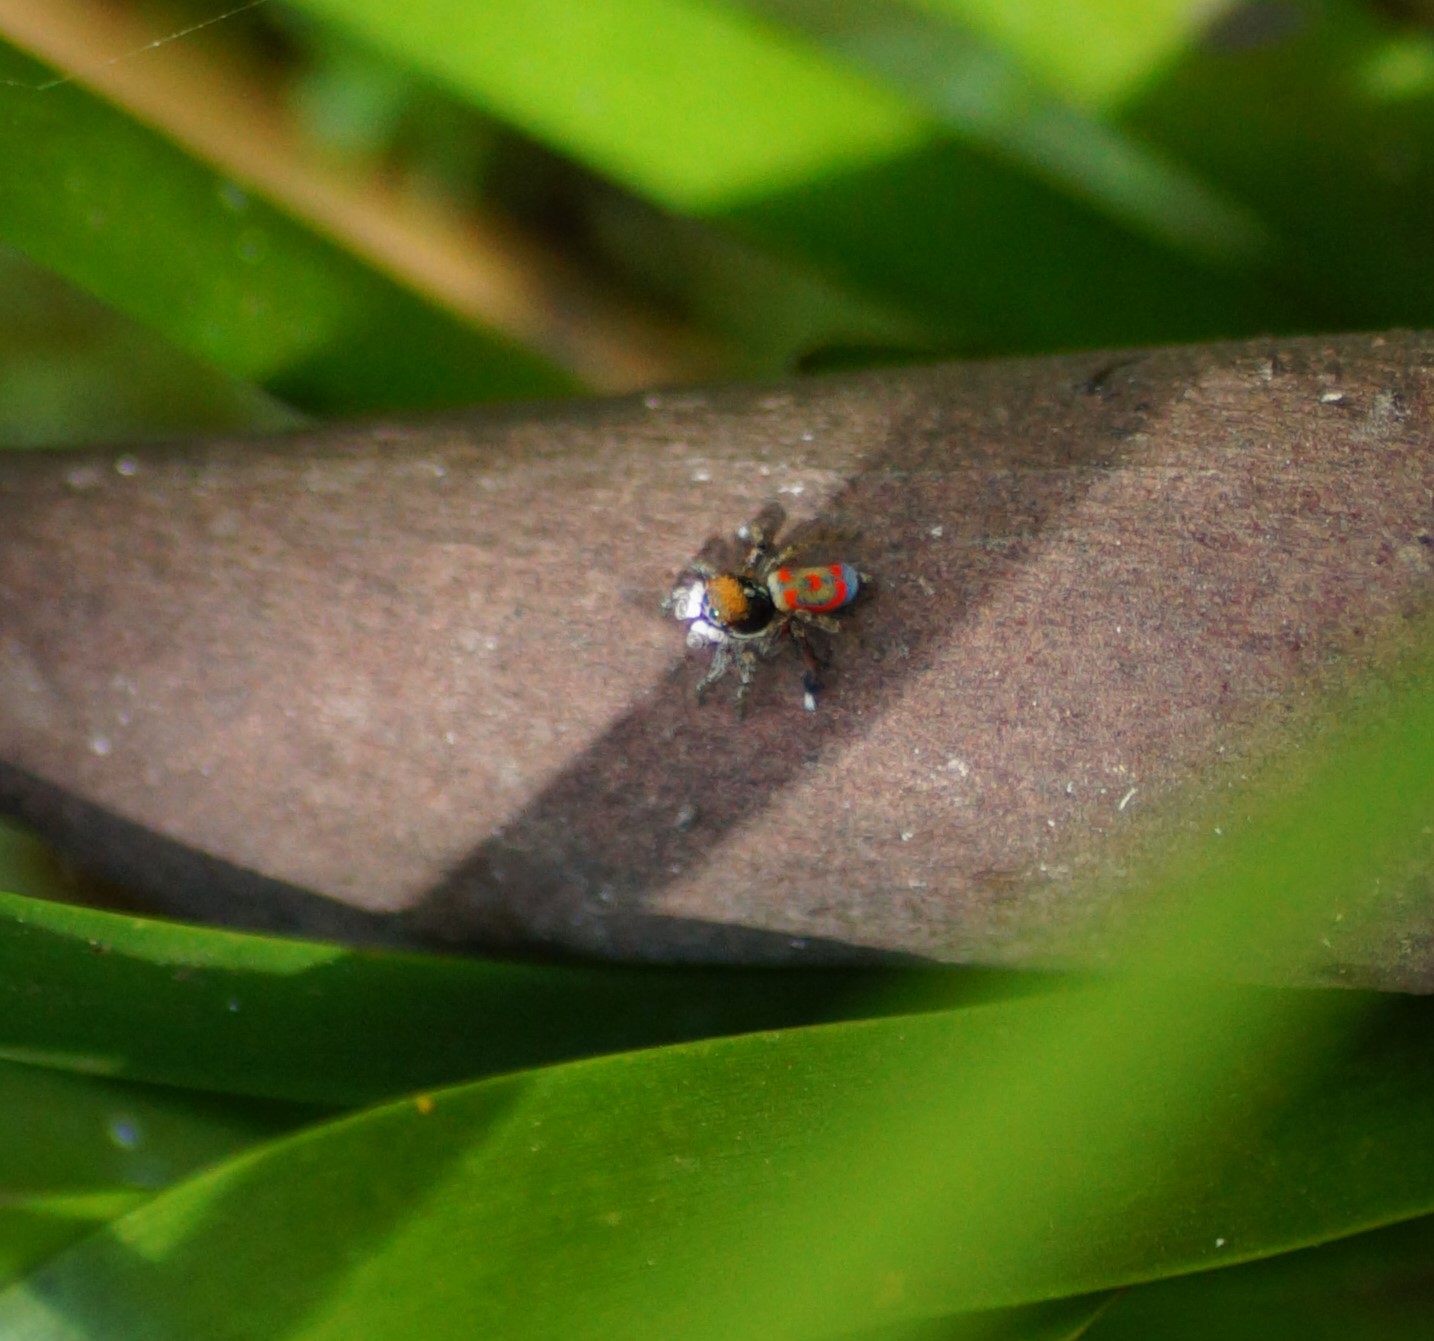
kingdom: Animalia
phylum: Arthropoda
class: Arachnida
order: Araneae
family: Salticidae
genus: Maratus
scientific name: Maratus pavonis
